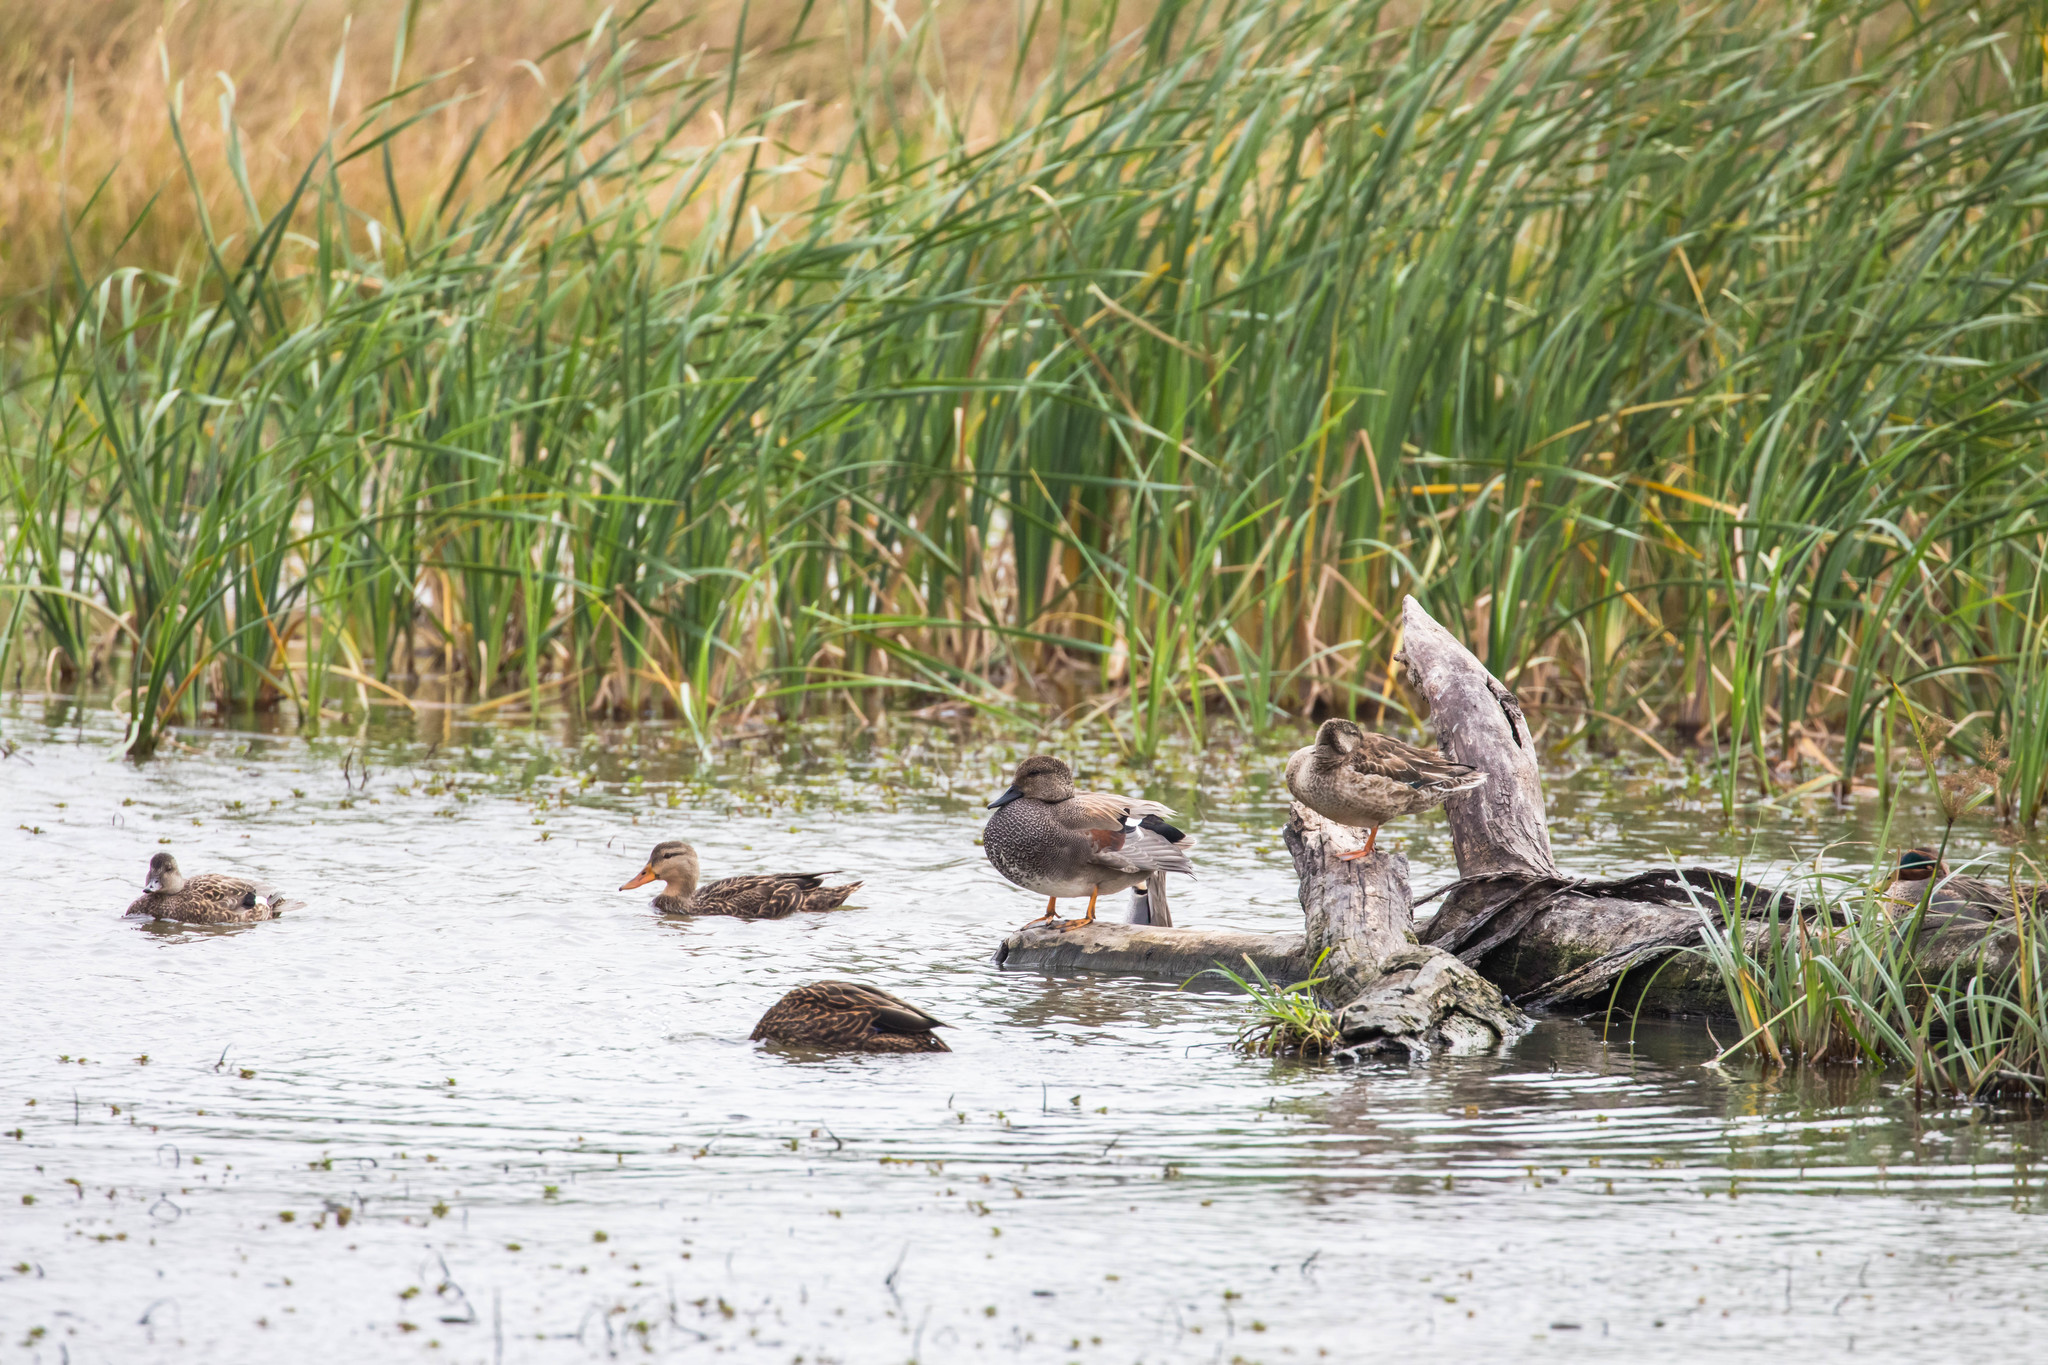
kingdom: Animalia
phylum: Chordata
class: Aves
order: Anseriformes
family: Anatidae
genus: Mareca
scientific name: Mareca strepera
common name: Gadwall
